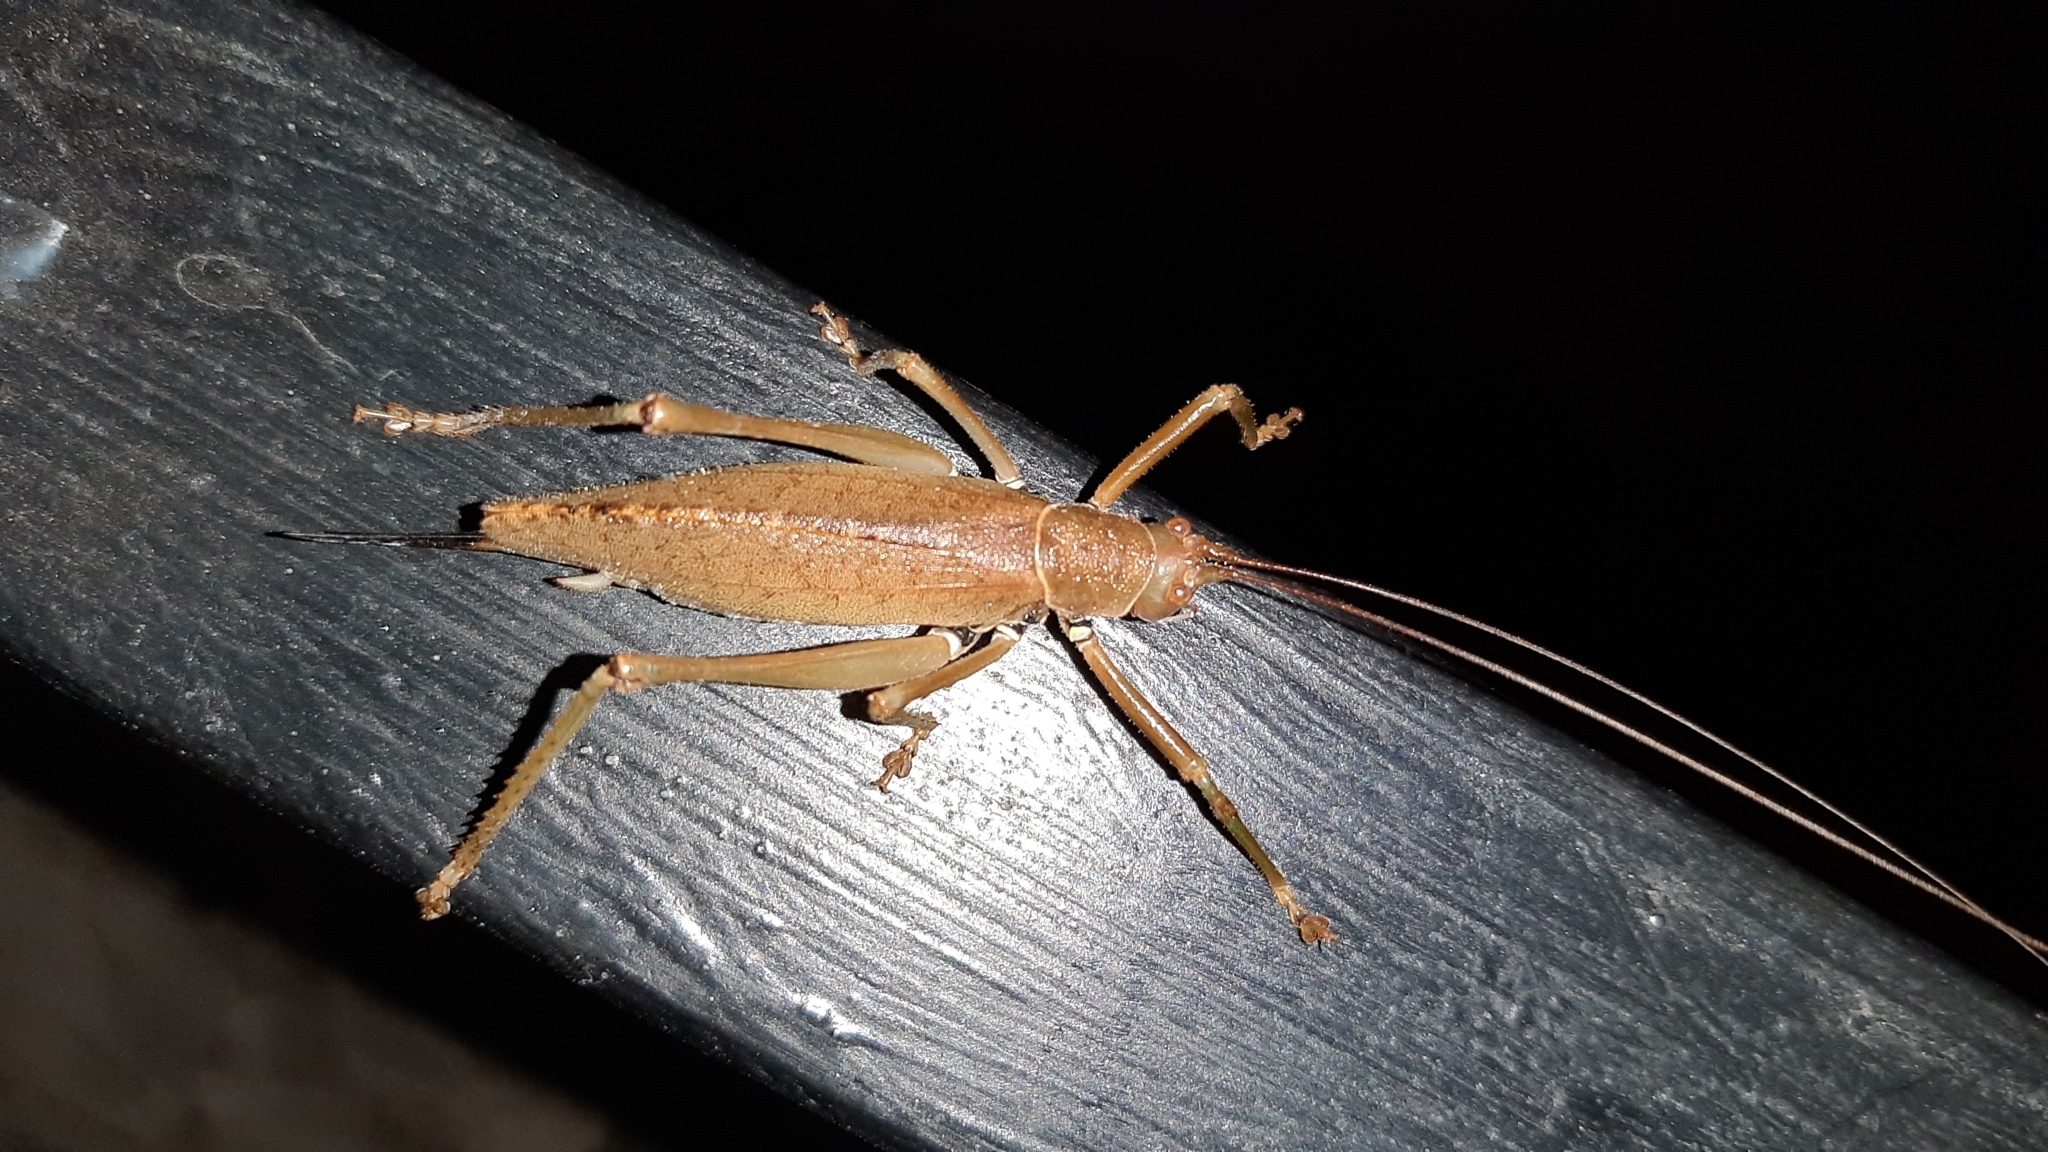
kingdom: Animalia
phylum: Arthropoda
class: Insecta
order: Orthoptera
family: Tettigoniidae
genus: Idiarthron
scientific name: Idiarthron hamuliferum
